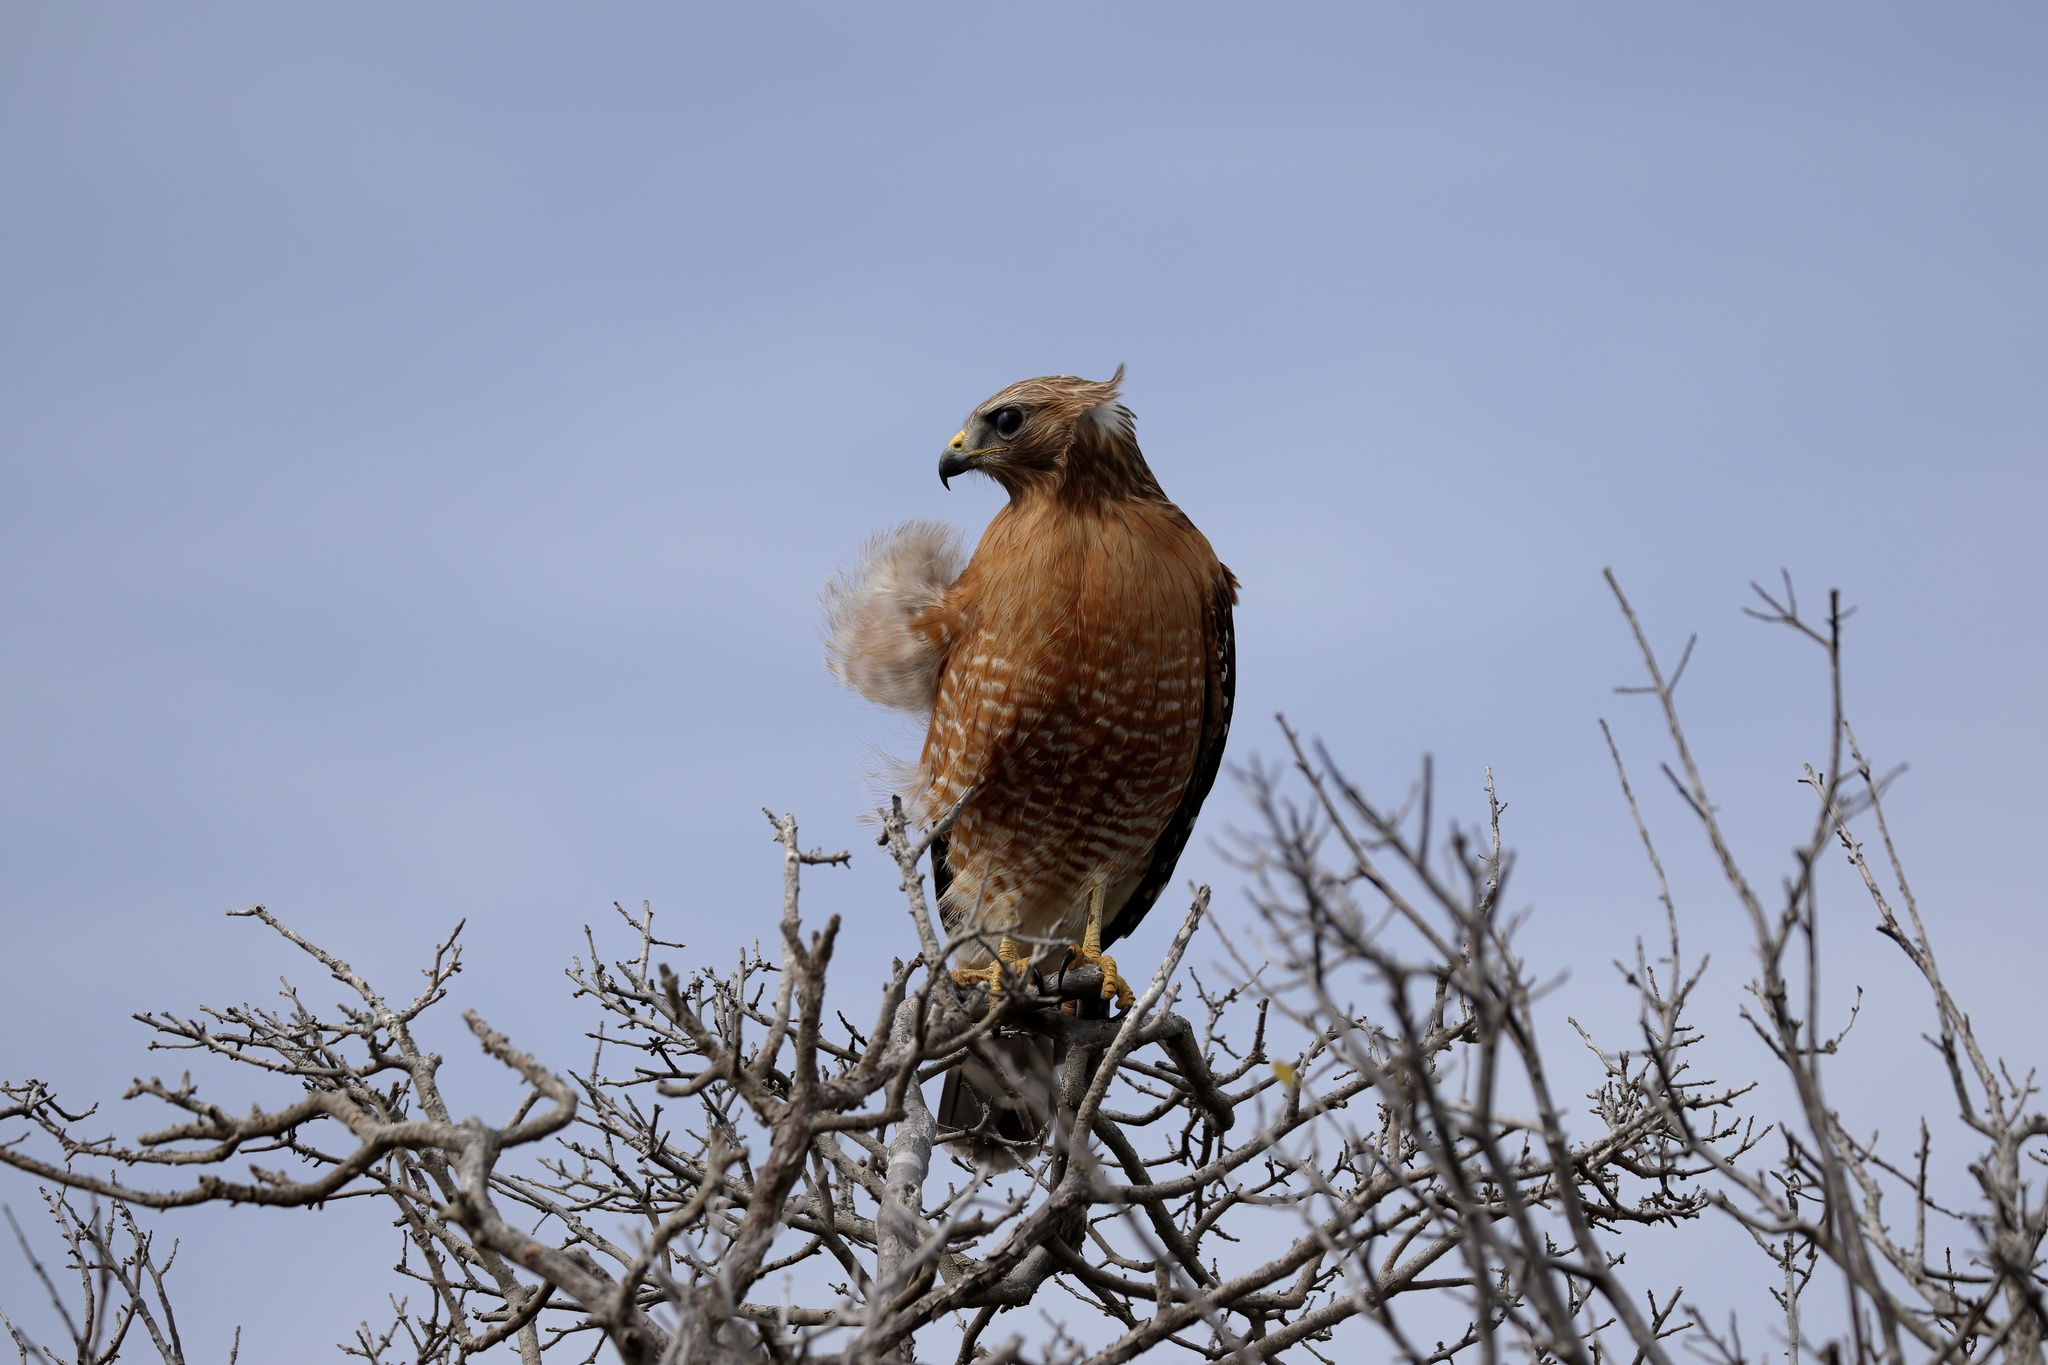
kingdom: Animalia
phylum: Chordata
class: Aves
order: Accipitriformes
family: Accipitridae
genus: Buteo
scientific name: Buteo lineatus
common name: Red-shouldered hawk
